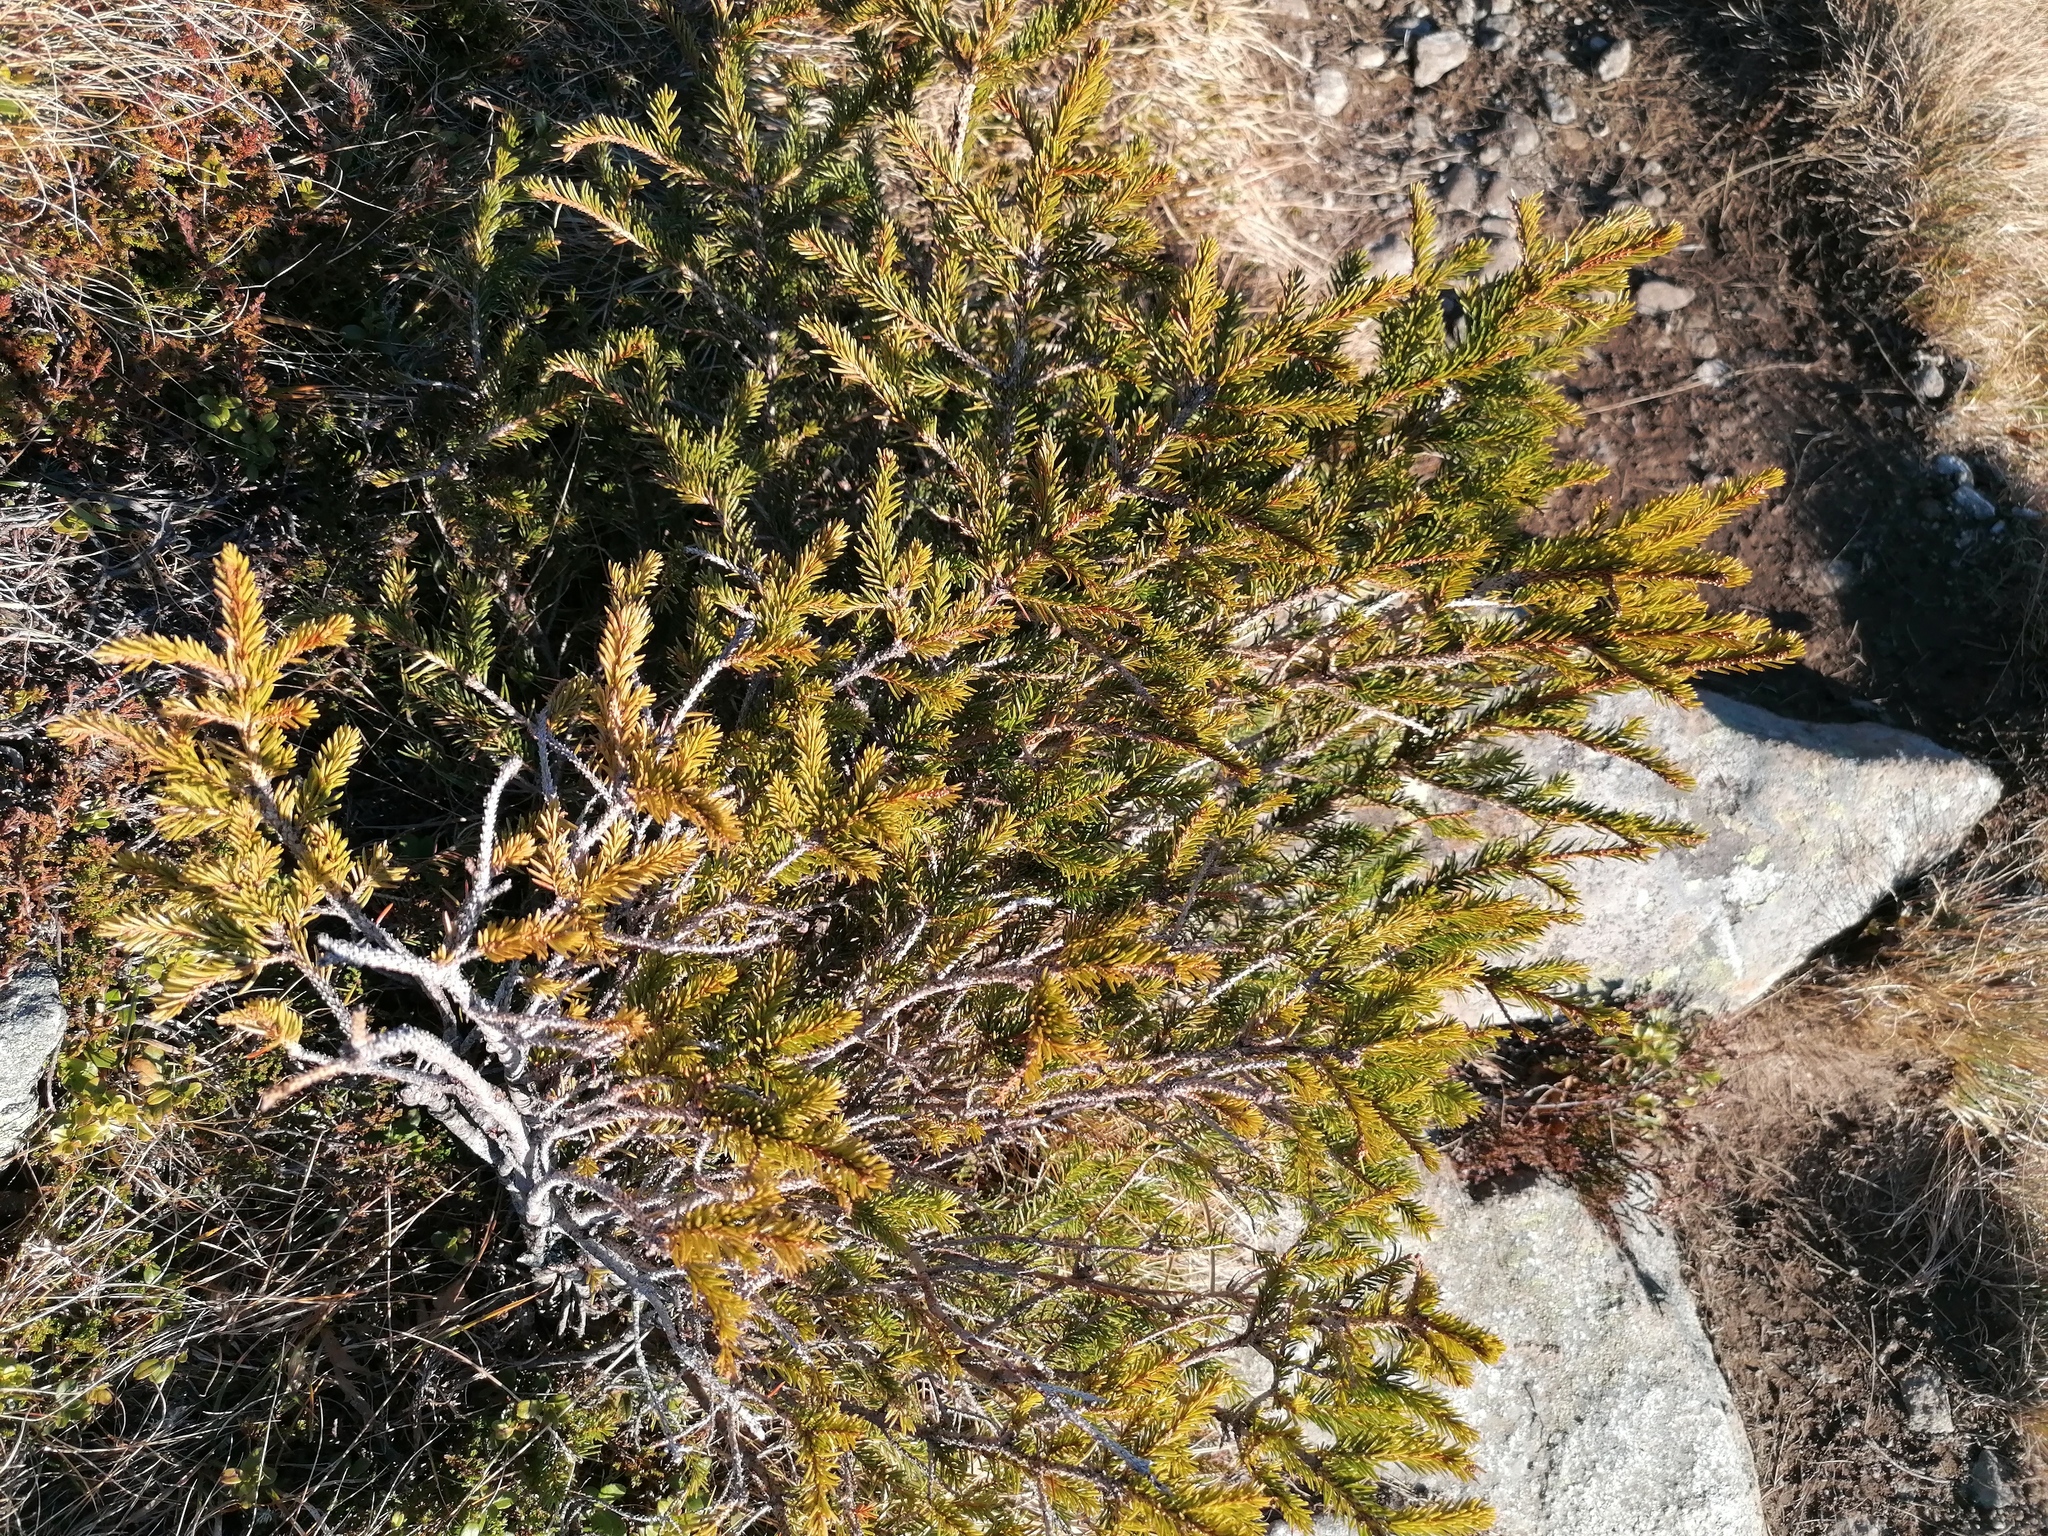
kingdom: Plantae
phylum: Tracheophyta
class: Pinopsida
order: Pinales
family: Pinaceae
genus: Picea
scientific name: Picea abies
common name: Norway spruce
